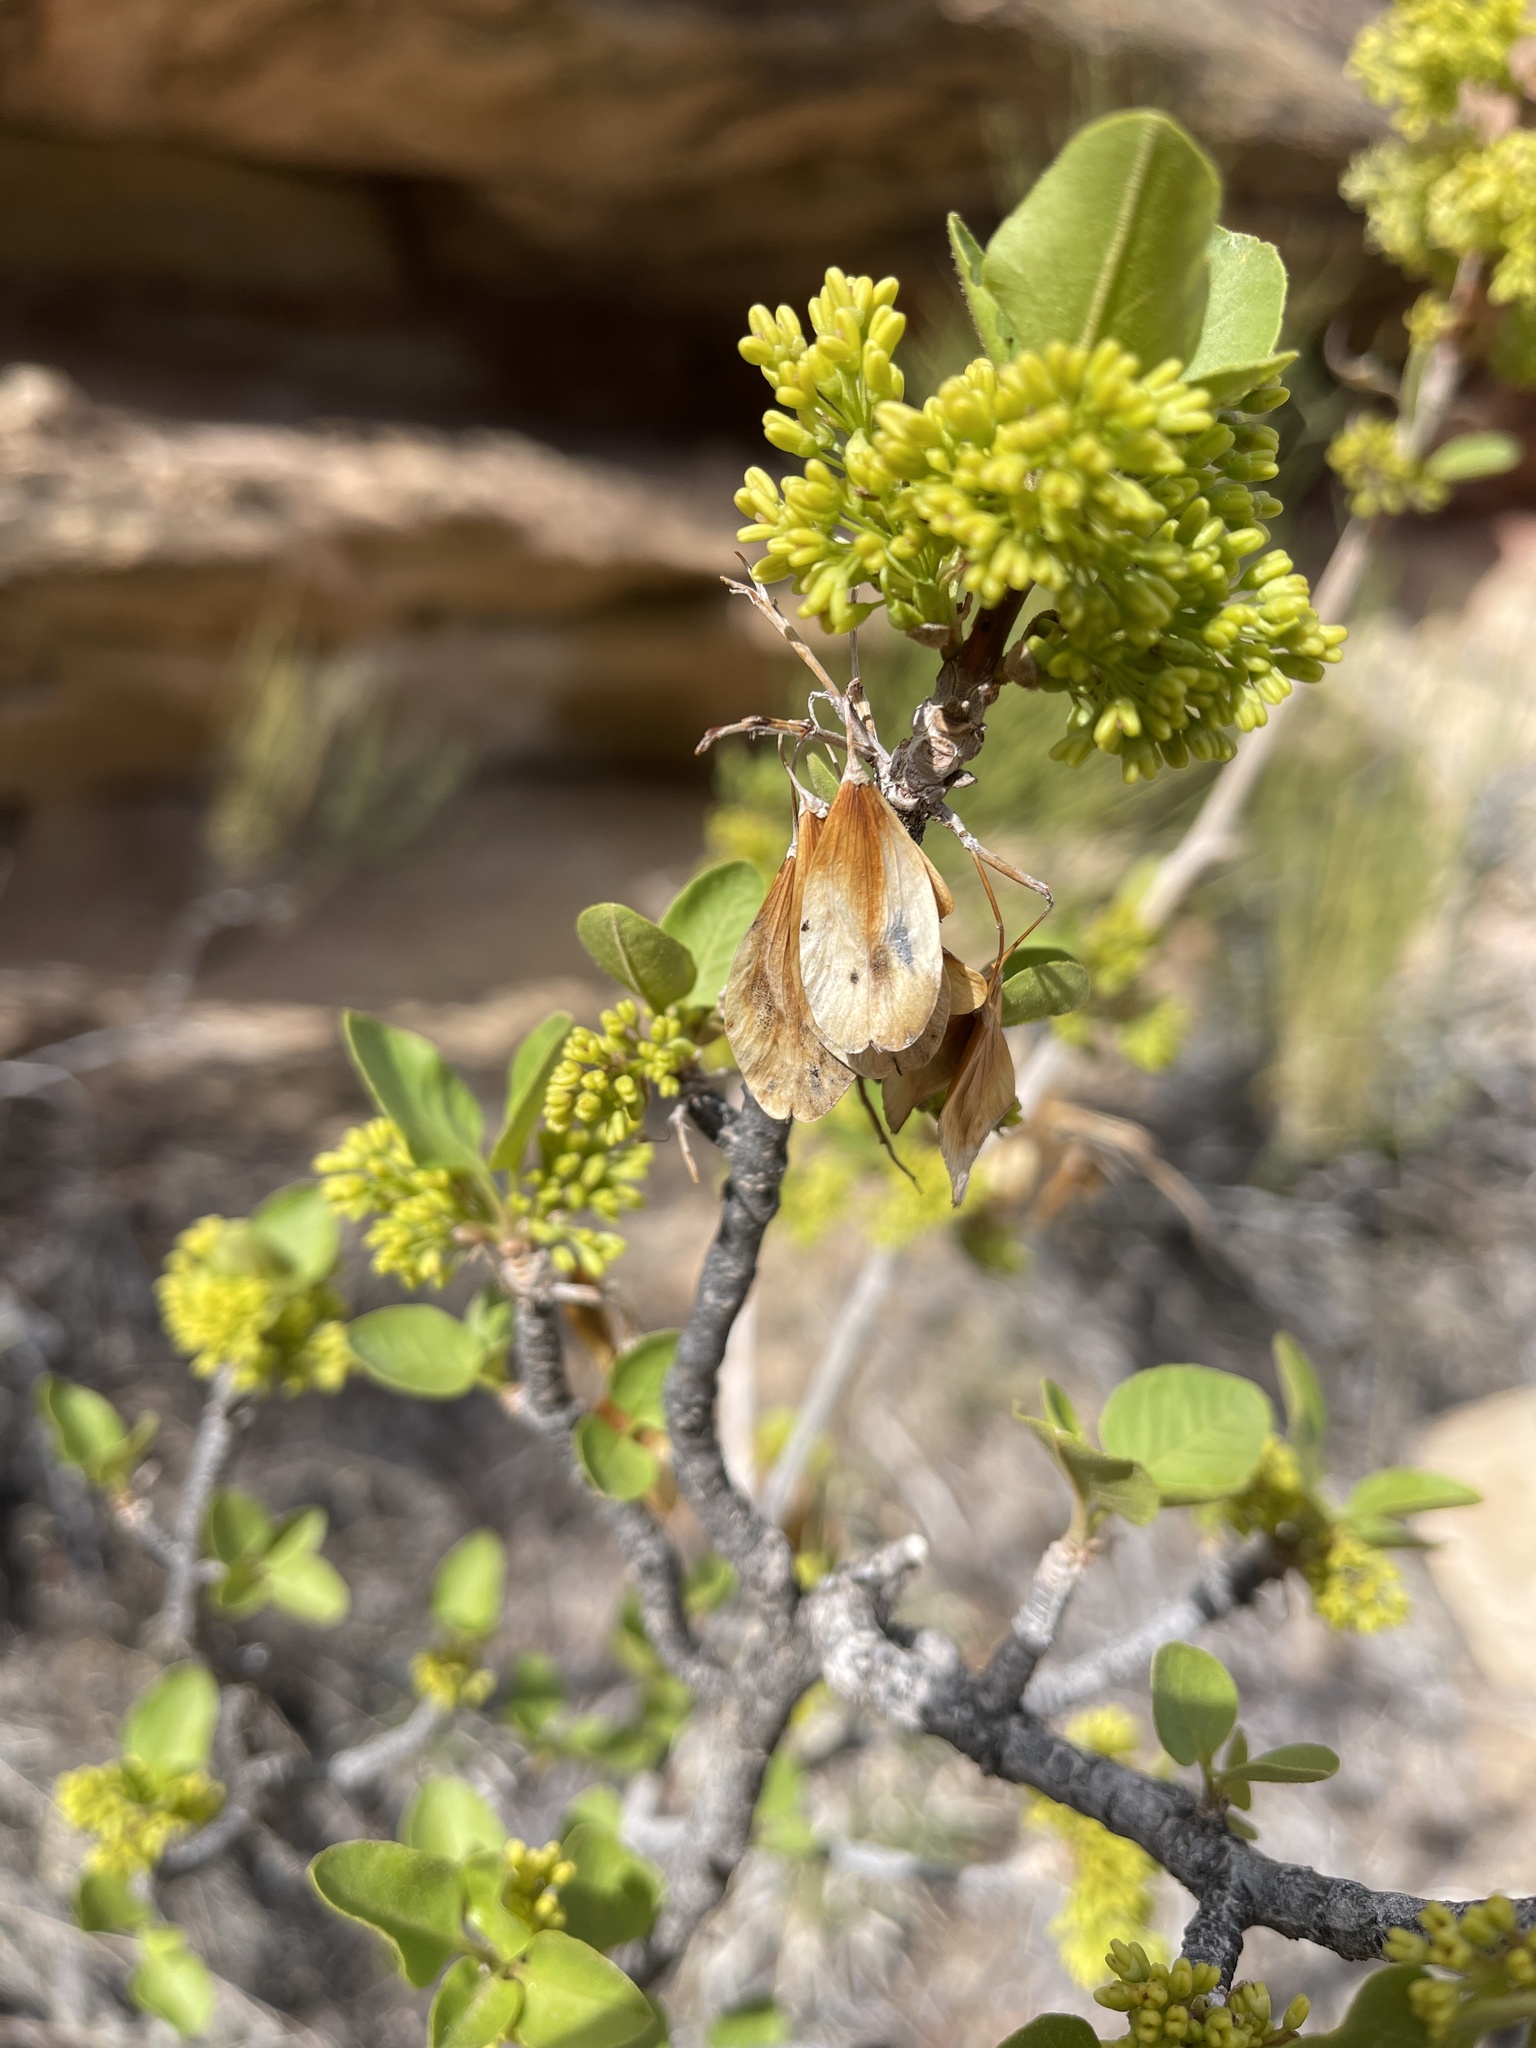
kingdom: Plantae
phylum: Tracheophyta
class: Magnoliopsida
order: Lamiales
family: Oleaceae
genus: Fraxinus
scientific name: Fraxinus anomala
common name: Utah ash
